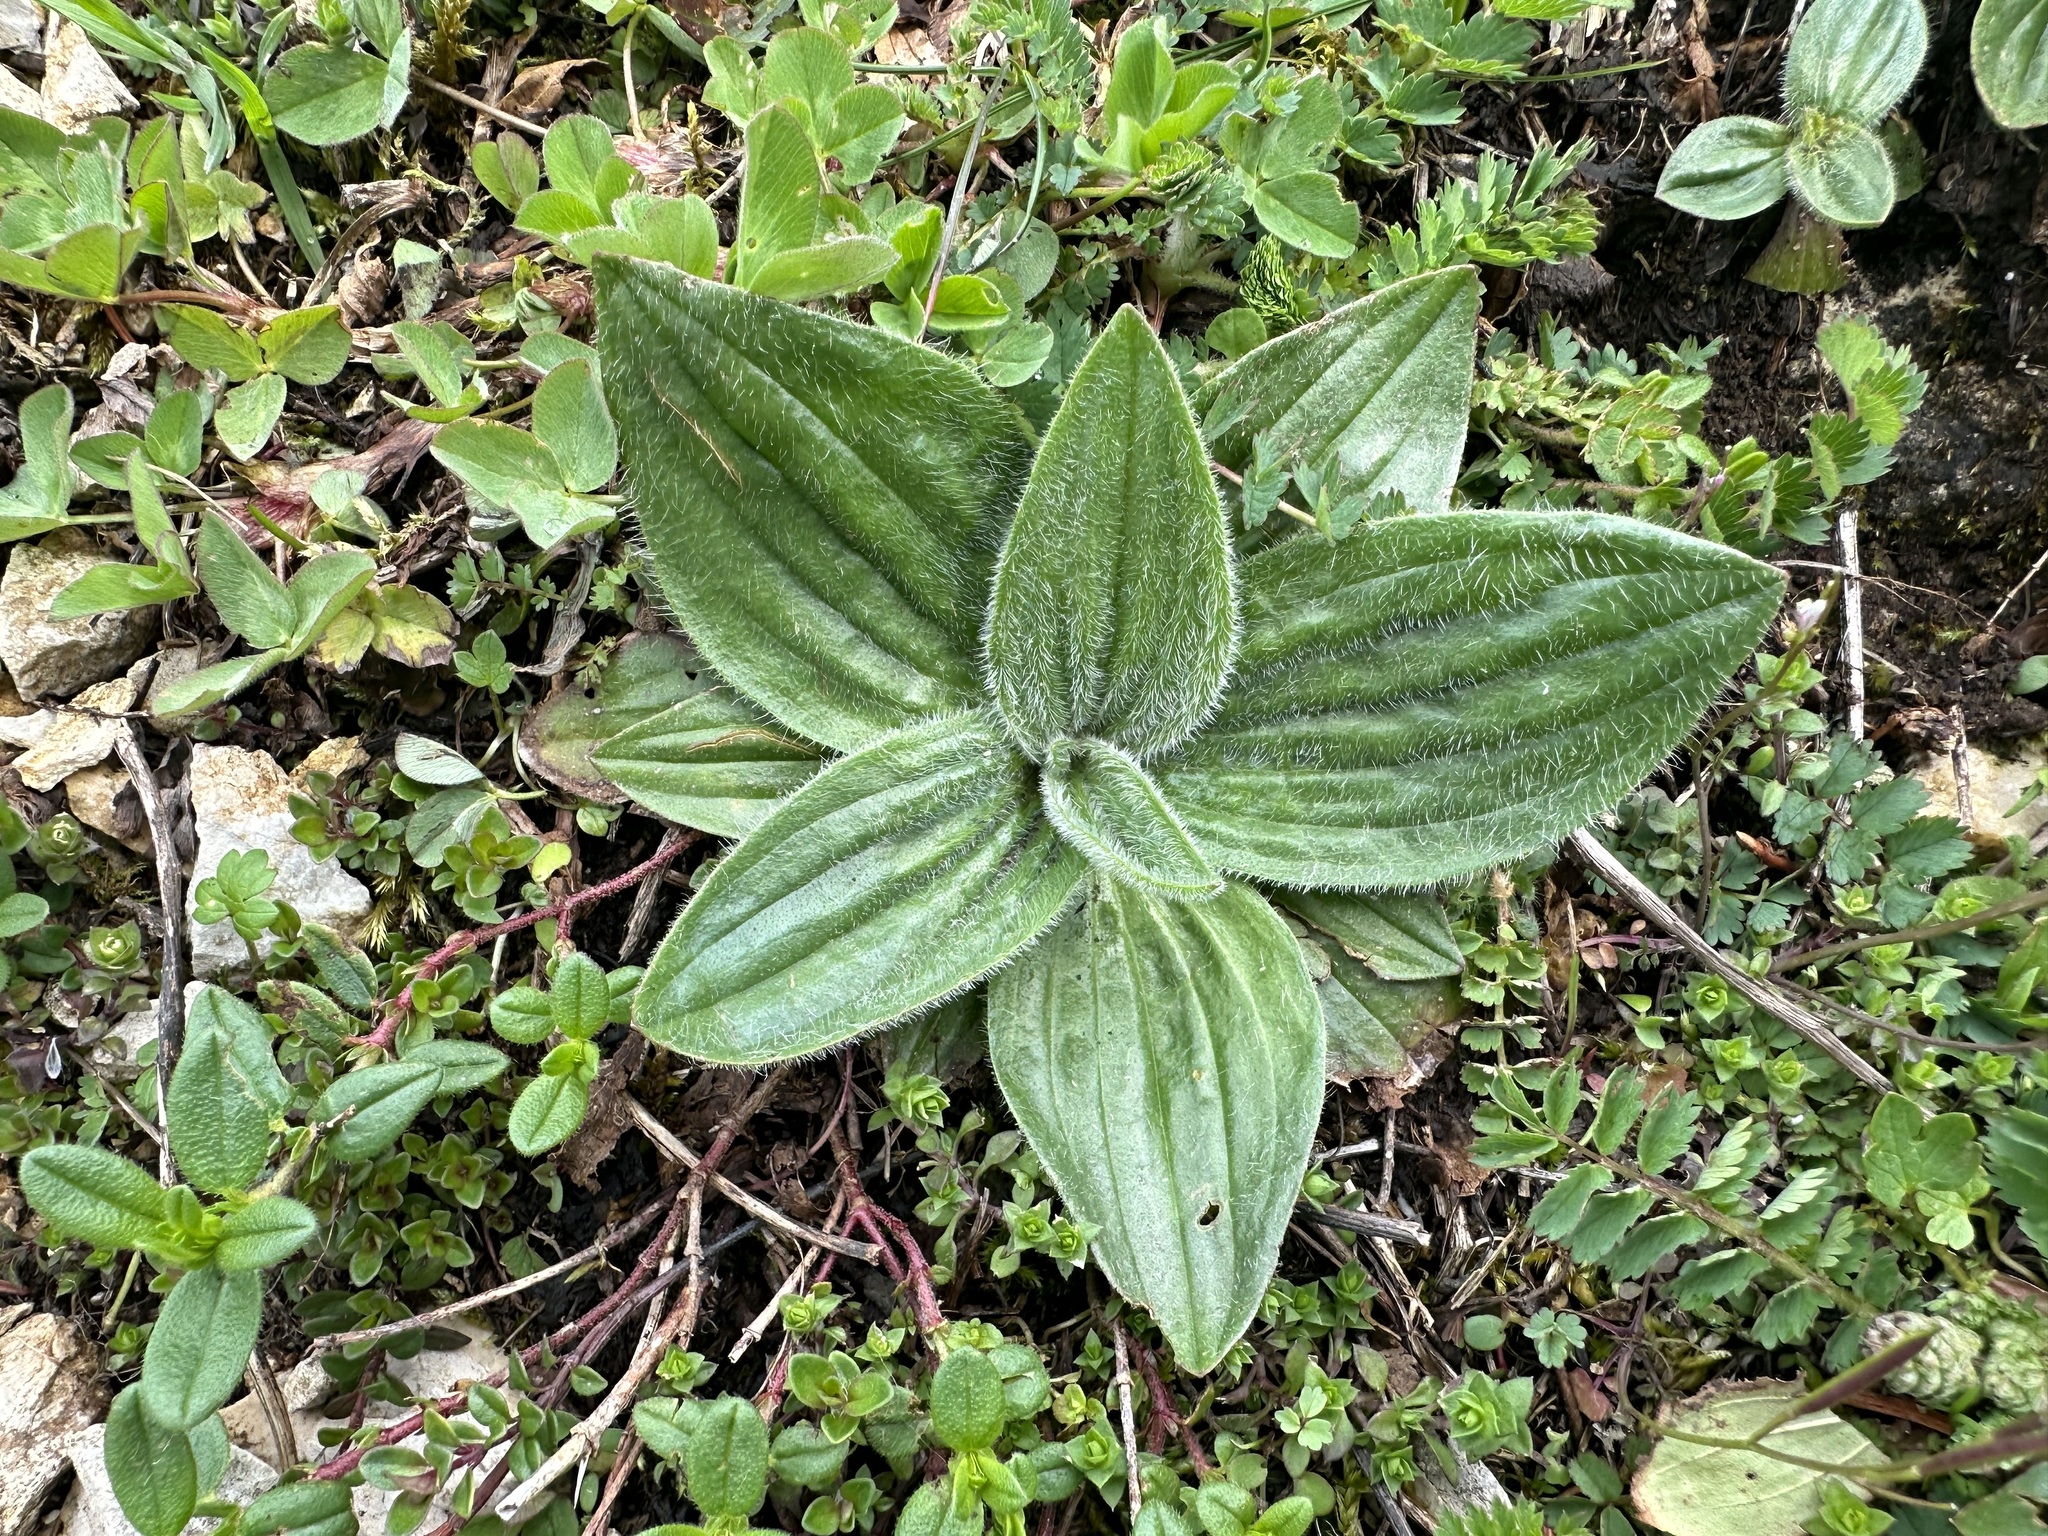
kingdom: Plantae
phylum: Tracheophyta
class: Magnoliopsida
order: Lamiales
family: Plantaginaceae
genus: Plantago
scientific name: Plantago media
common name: Hoary plantain
